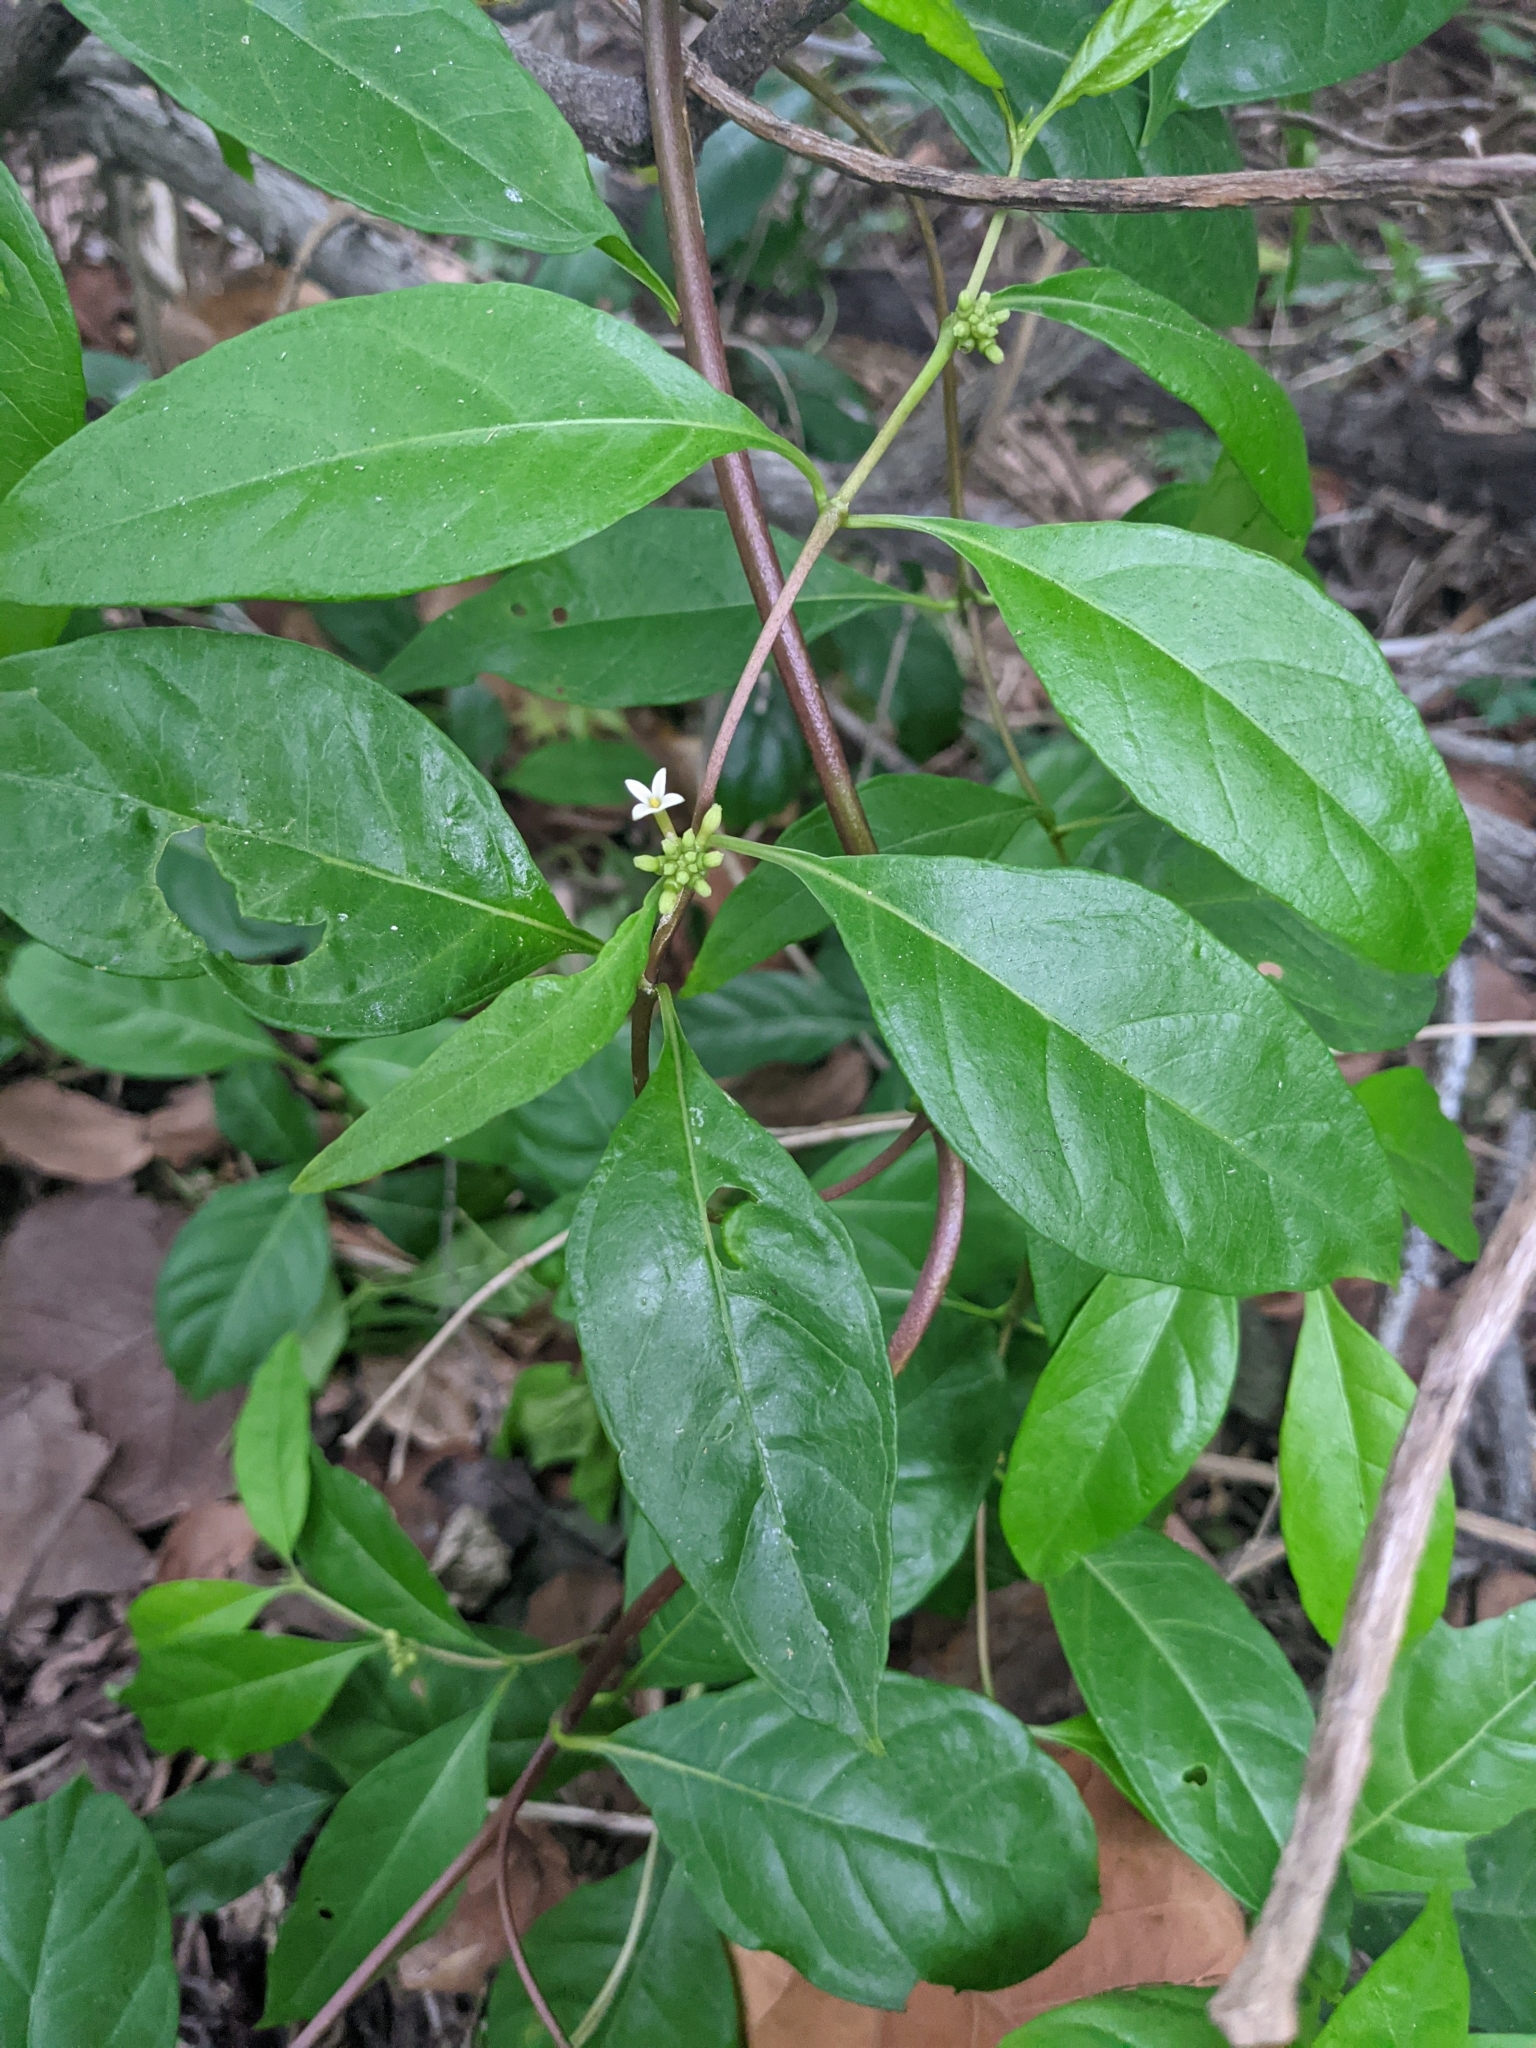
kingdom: Plantae
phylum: Tracheophyta
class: Magnoliopsida
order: Gentianales
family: Rubiaceae
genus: Morinda
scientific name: Morinda royoc
